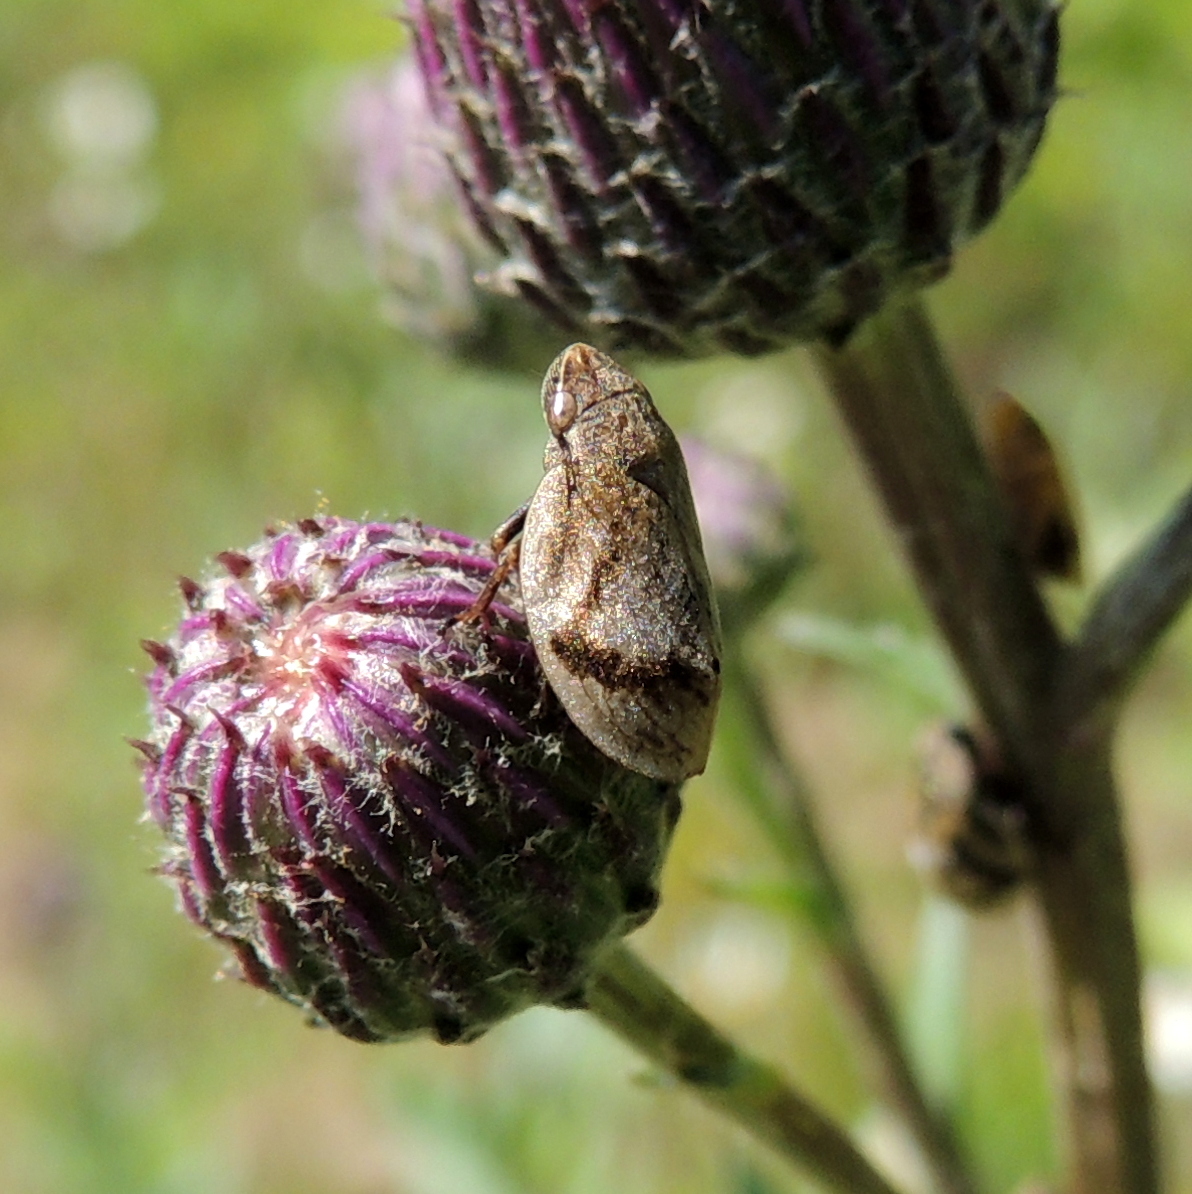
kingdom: Animalia
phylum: Arthropoda
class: Insecta
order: Hemiptera
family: Aphrophoridae
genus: Lepyronia
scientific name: Lepyronia coleoptrata
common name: Leafhopper
